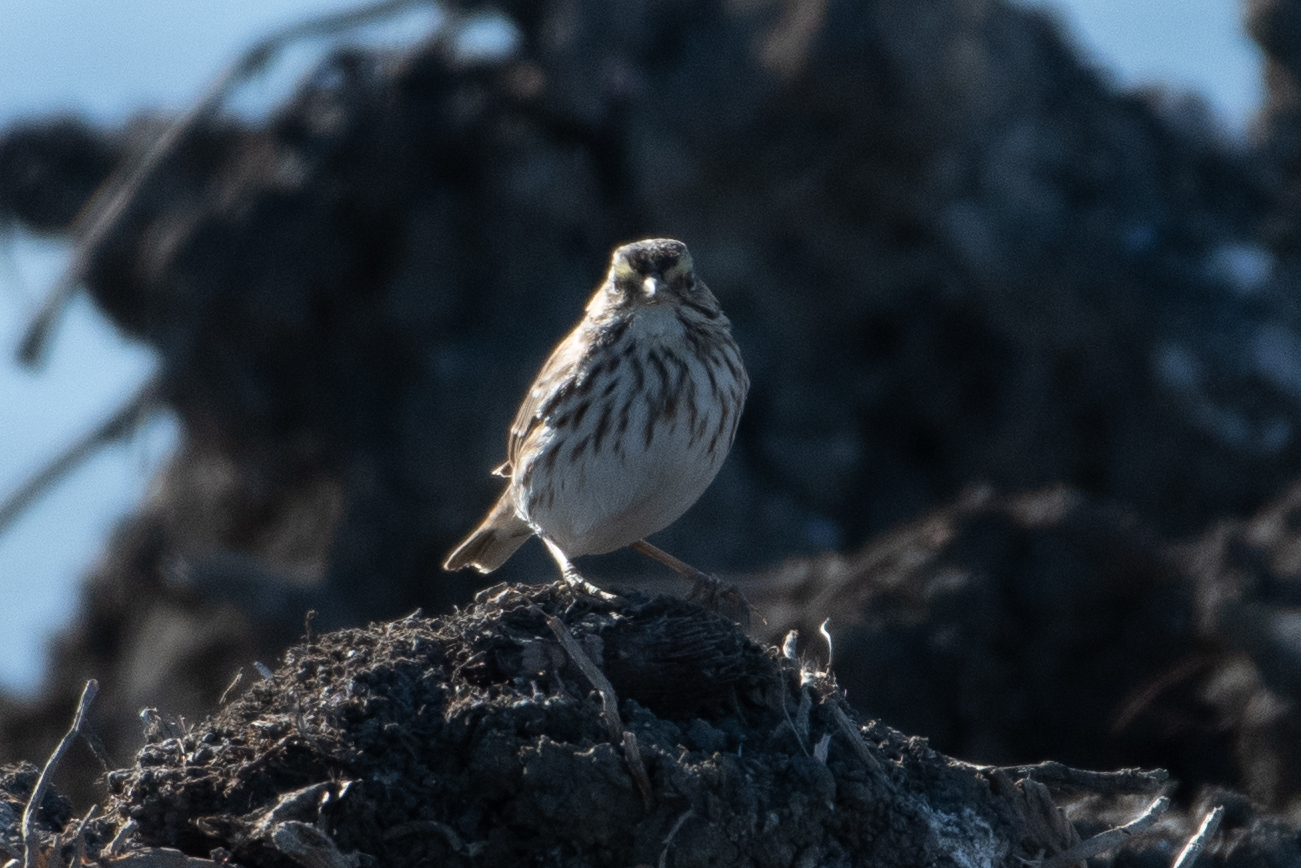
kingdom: Animalia
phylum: Chordata
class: Aves
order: Passeriformes
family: Passerellidae
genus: Passerculus
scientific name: Passerculus sandwichensis
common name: Savannah sparrow
